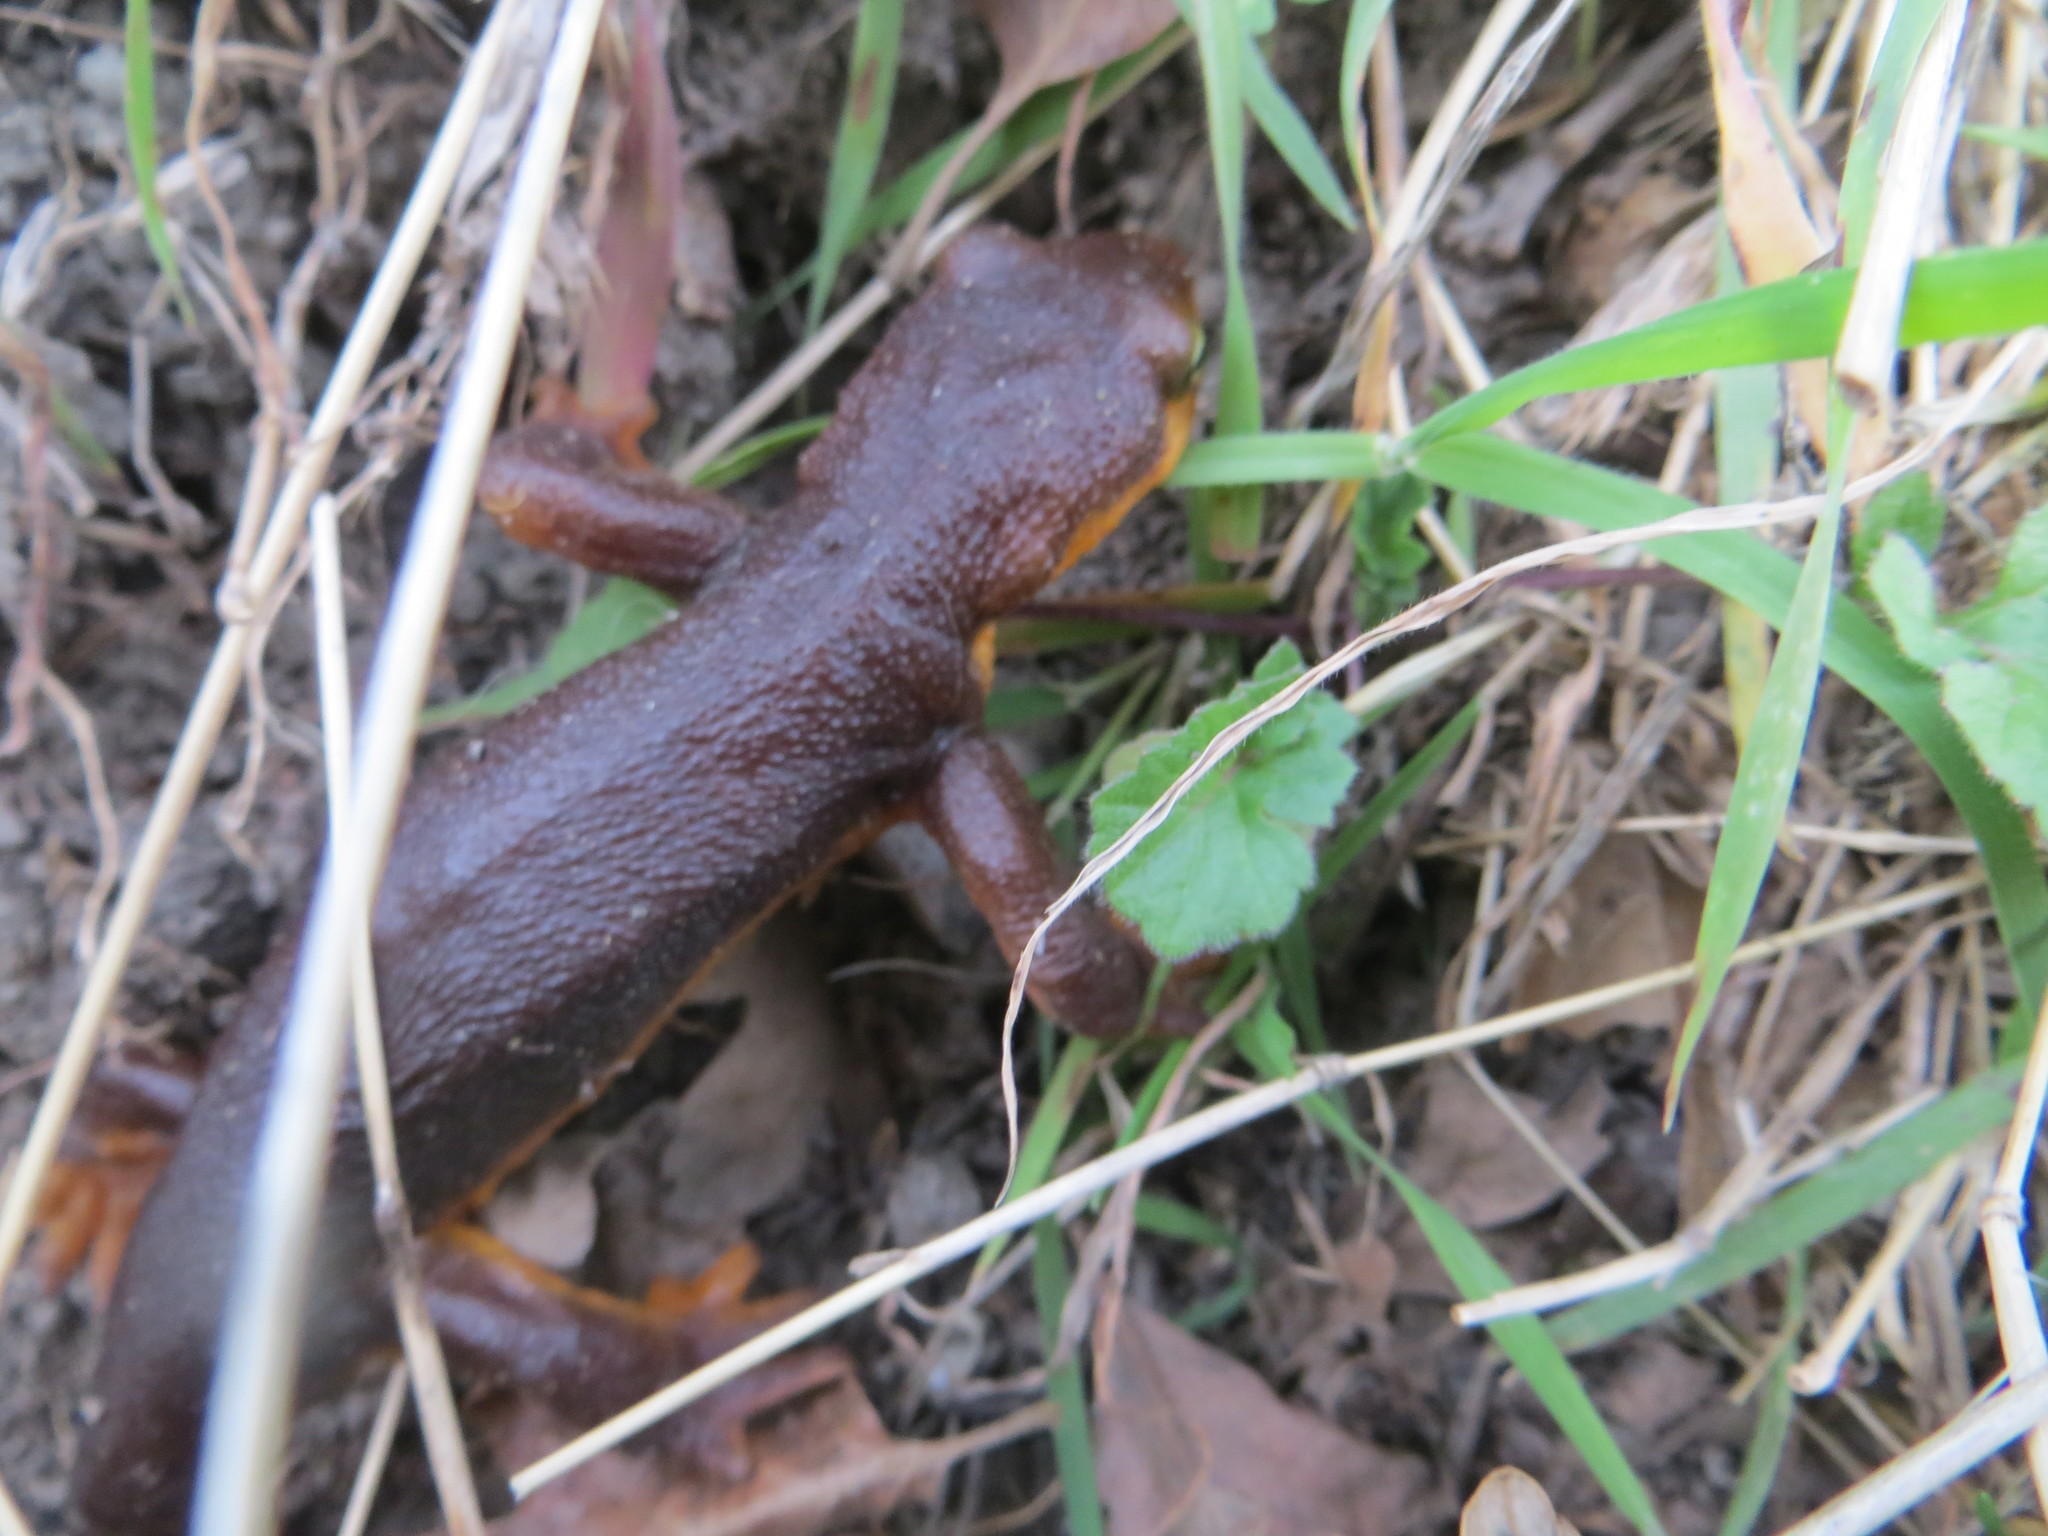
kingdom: Animalia
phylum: Chordata
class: Amphibia
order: Caudata
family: Salamandridae
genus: Taricha
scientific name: Taricha torosa
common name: California newt
